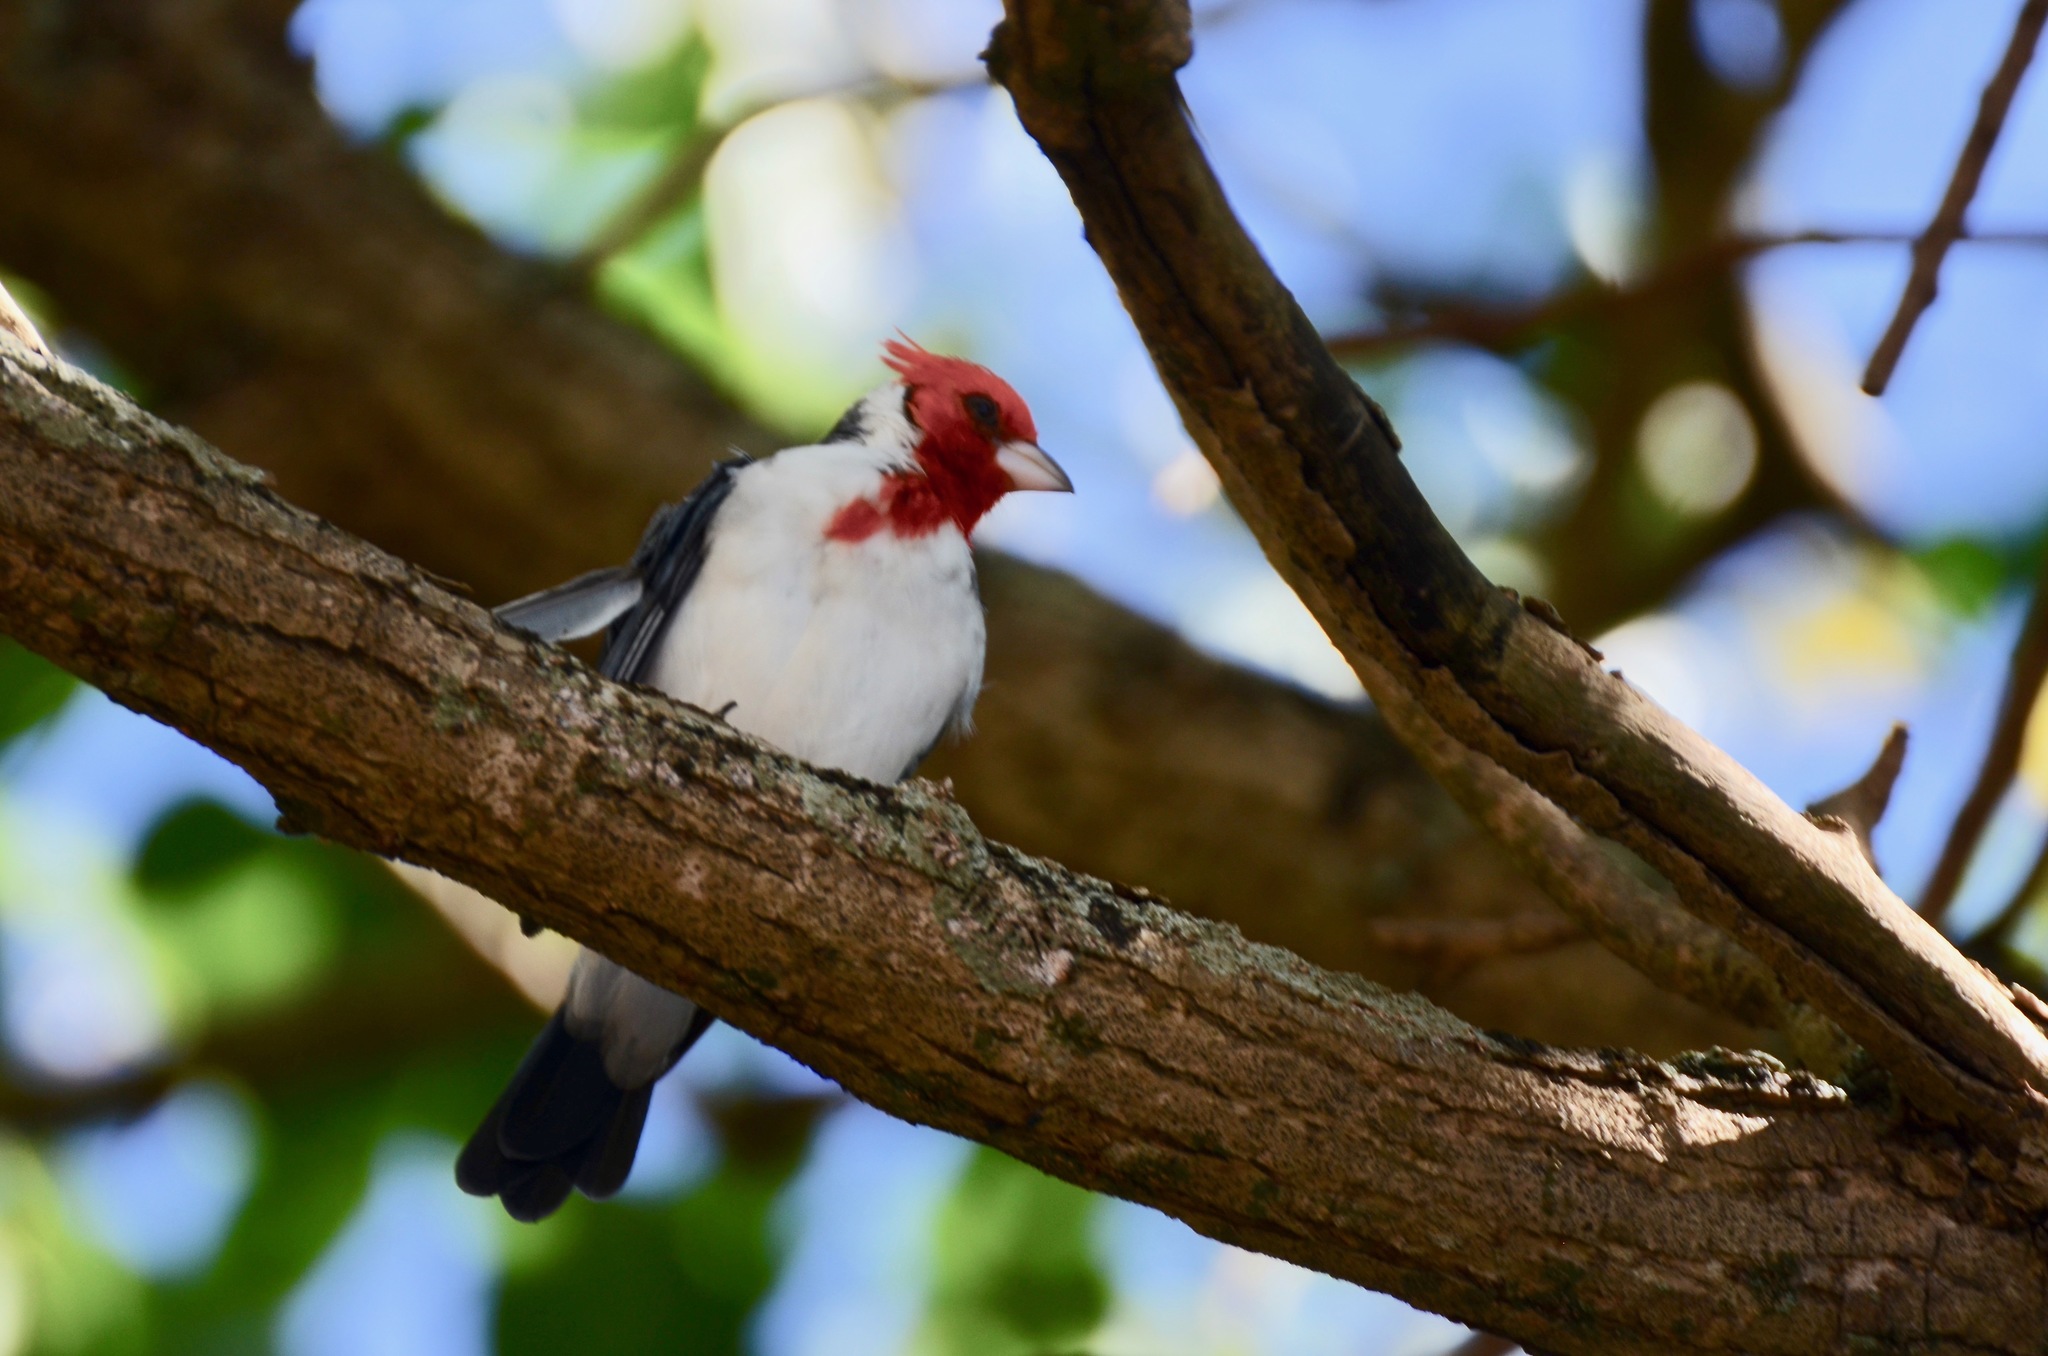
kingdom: Animalia
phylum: Chordata
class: Aves
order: Passeriformes
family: Thraupidae
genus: Paroaria
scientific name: Paroaria coronata
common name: Red-crested cardinal
